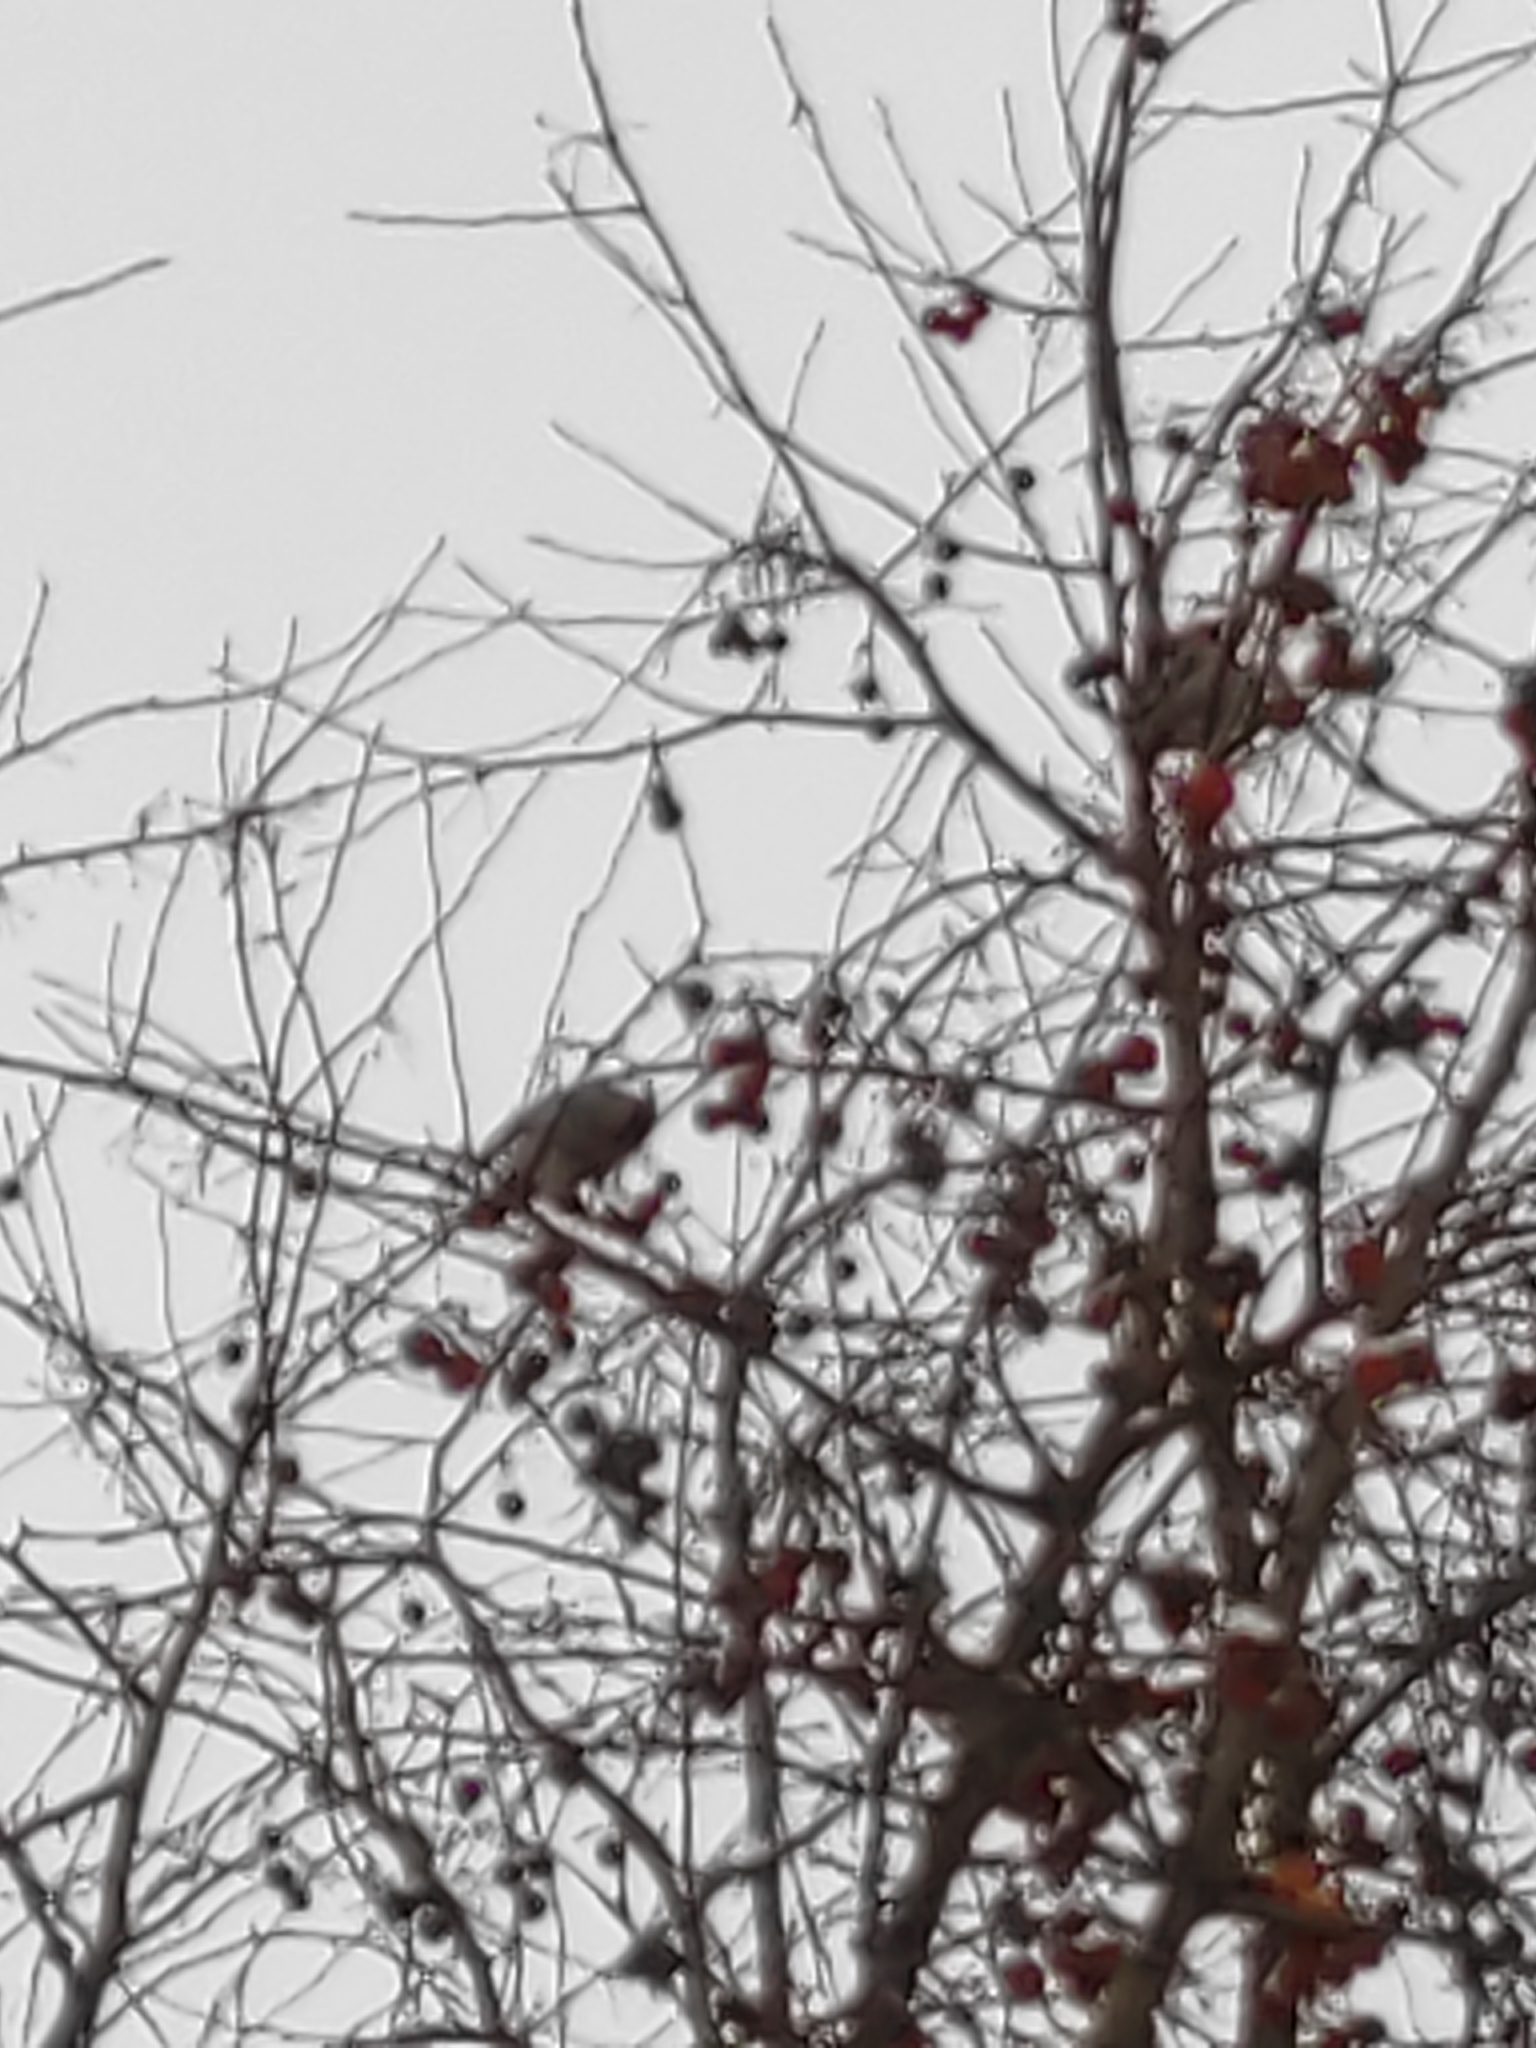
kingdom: Animalia
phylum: Chordata
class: Aves
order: Passeriformes
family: Bombycillidae
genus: Bombycilla
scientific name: Bombycilla garrulus
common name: Bohemian waxwing
